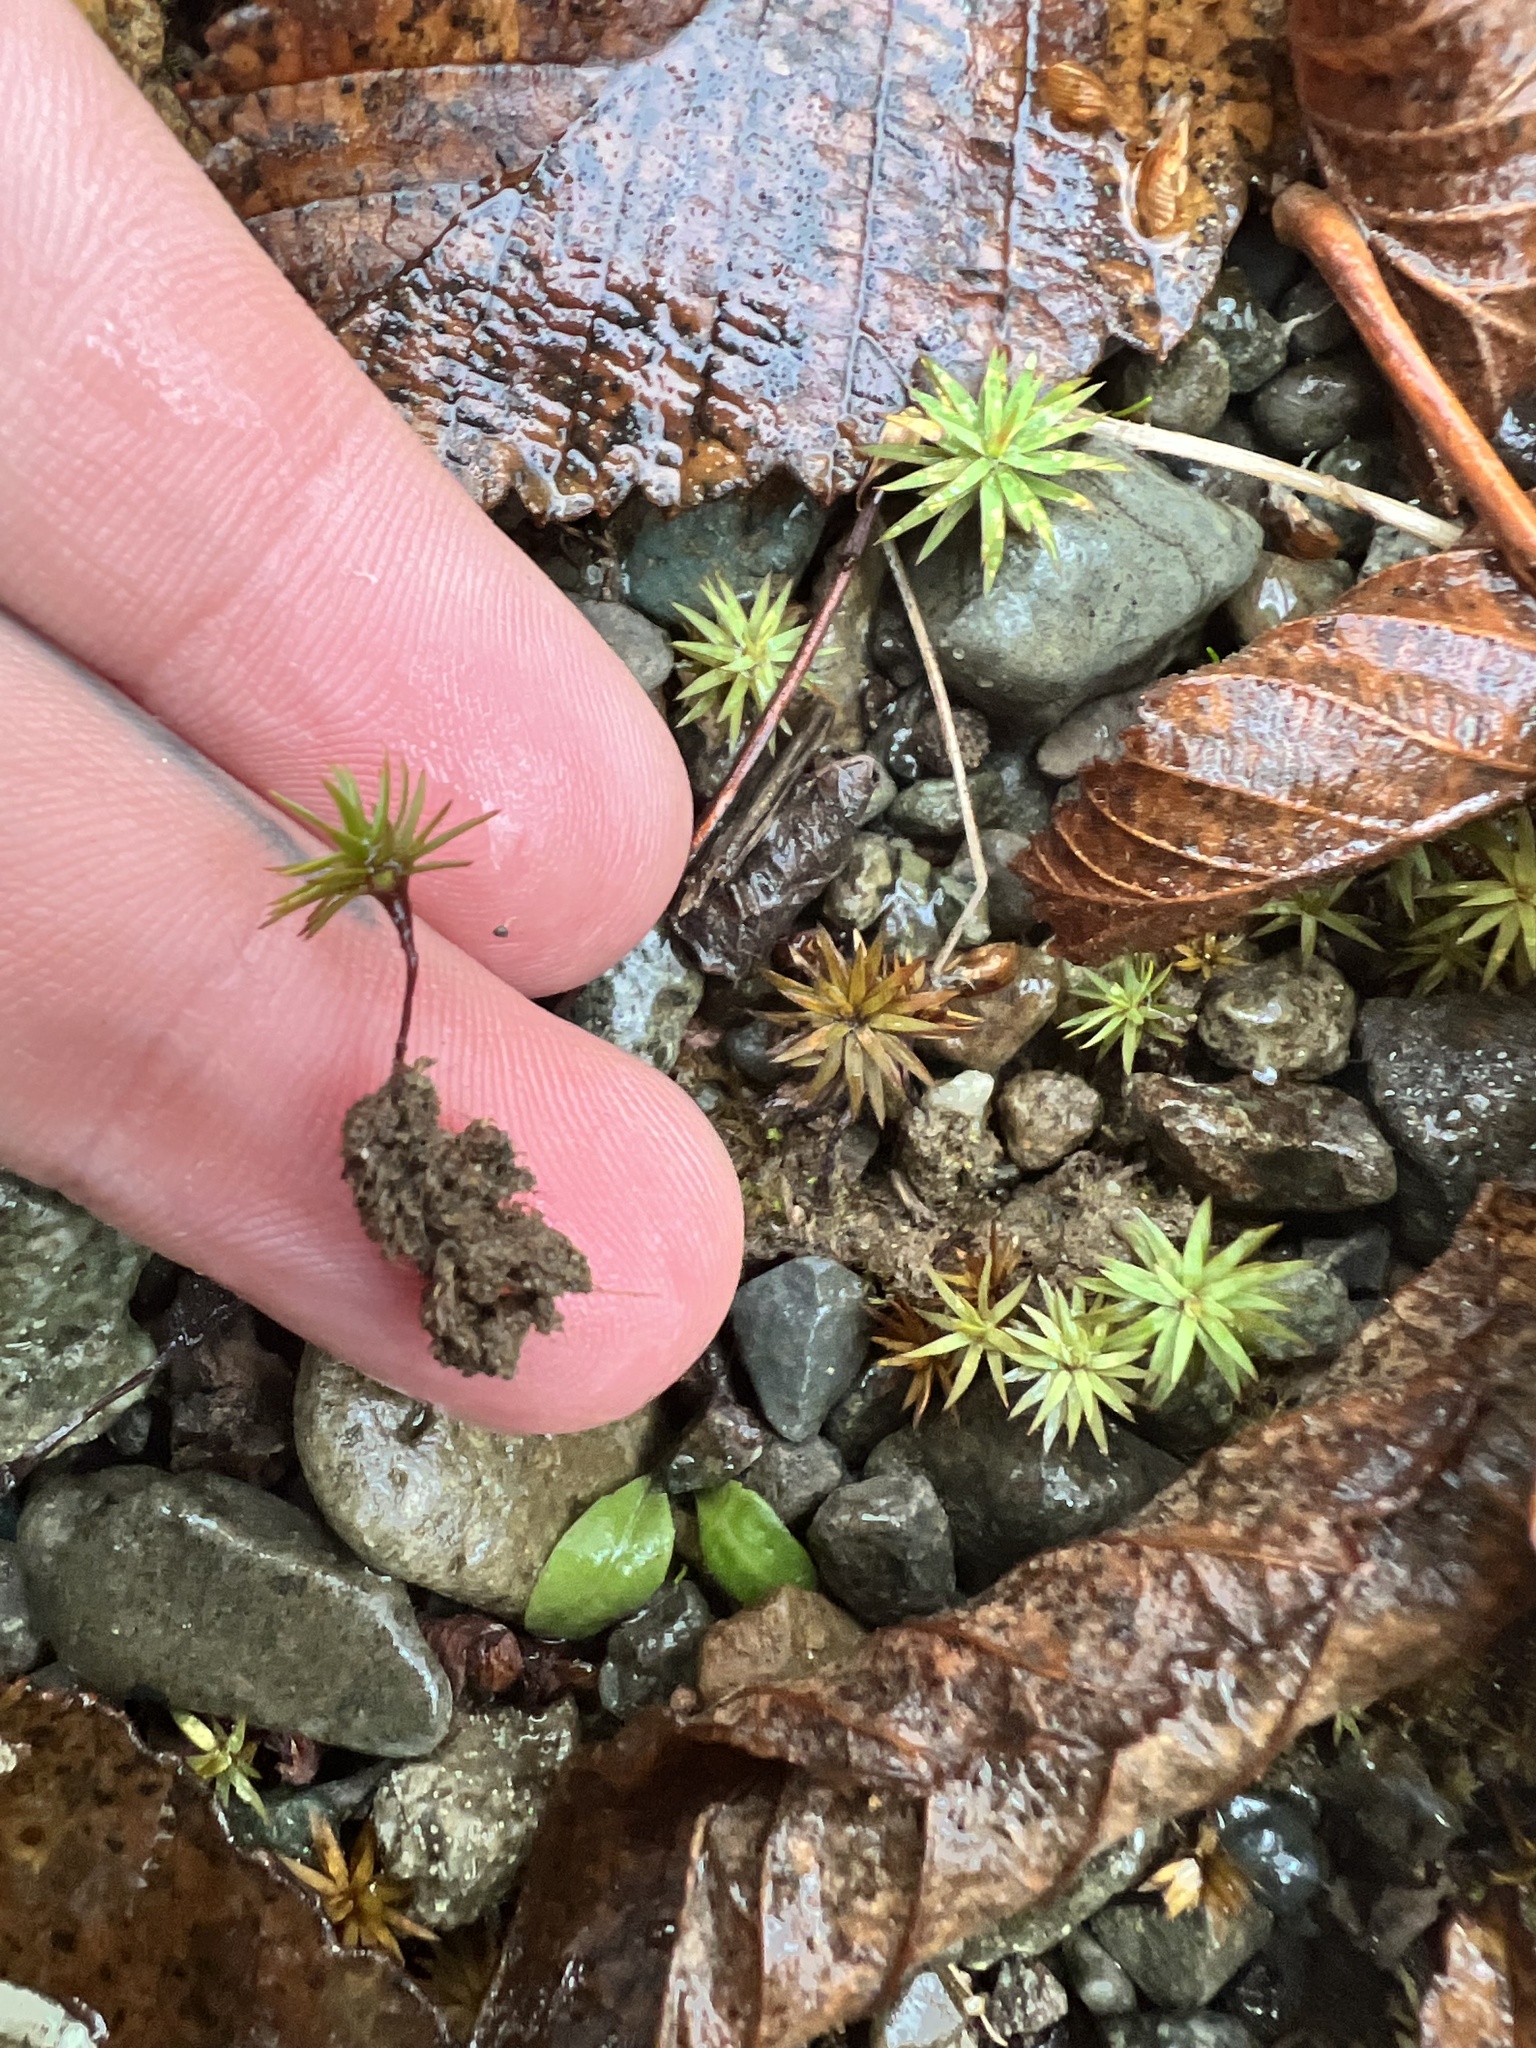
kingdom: Plantae
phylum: Bryophyta
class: Polytrichopsida
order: Polytrichales
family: Polytrichaceae
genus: Pogonatum
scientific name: Pogonatum urnigerum
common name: Urn hair moss
